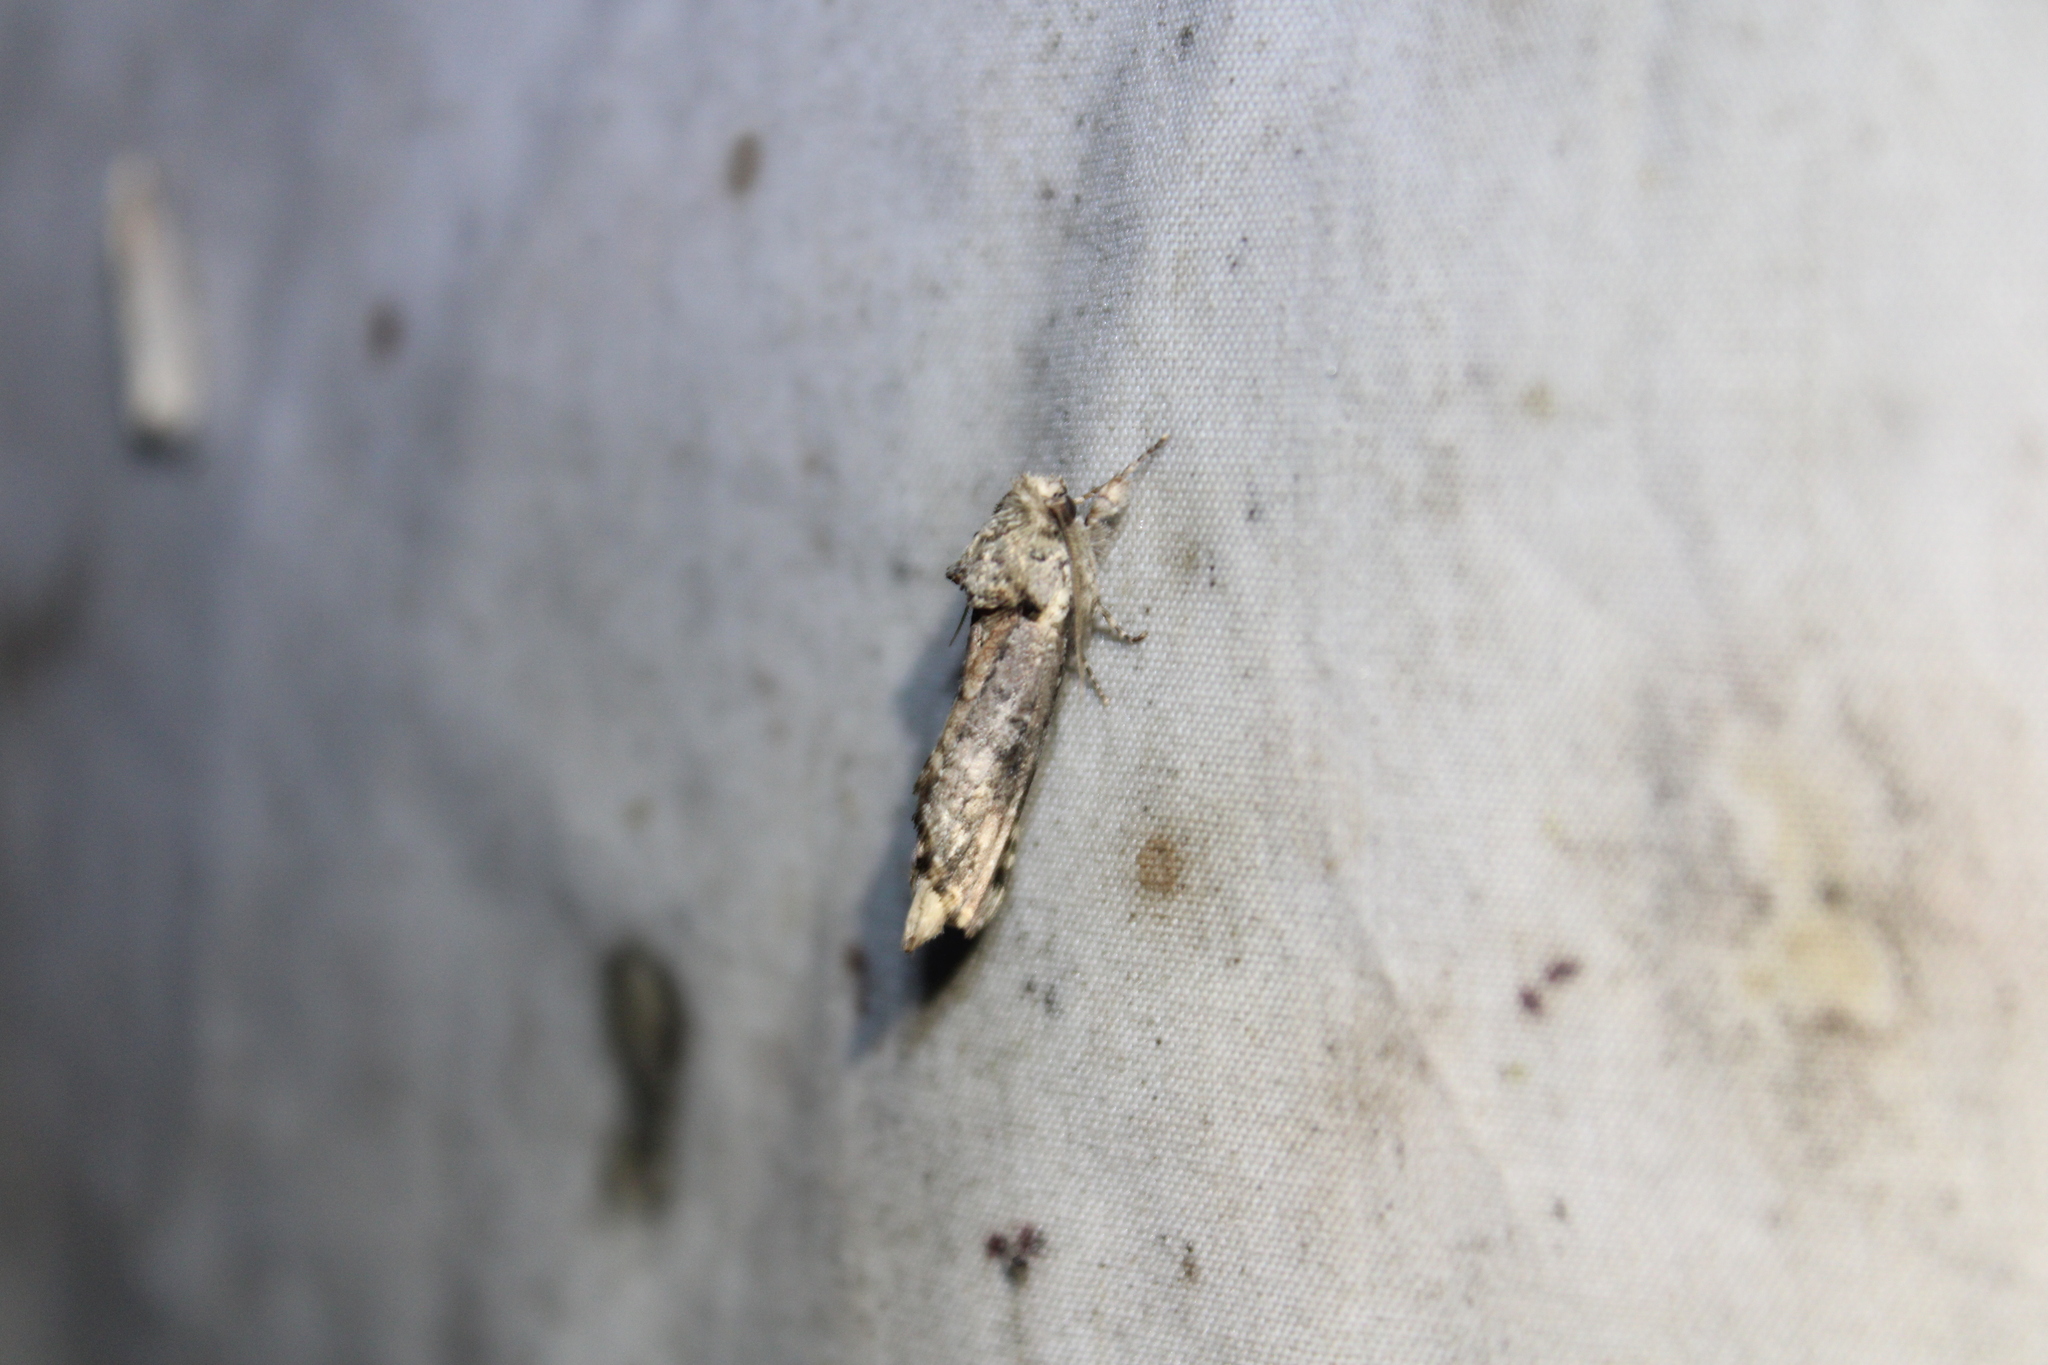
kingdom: Animalia
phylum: Arthropoda
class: Insecta
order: Lepidoptera
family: Notodontidae
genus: Schizura
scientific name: Schizura
